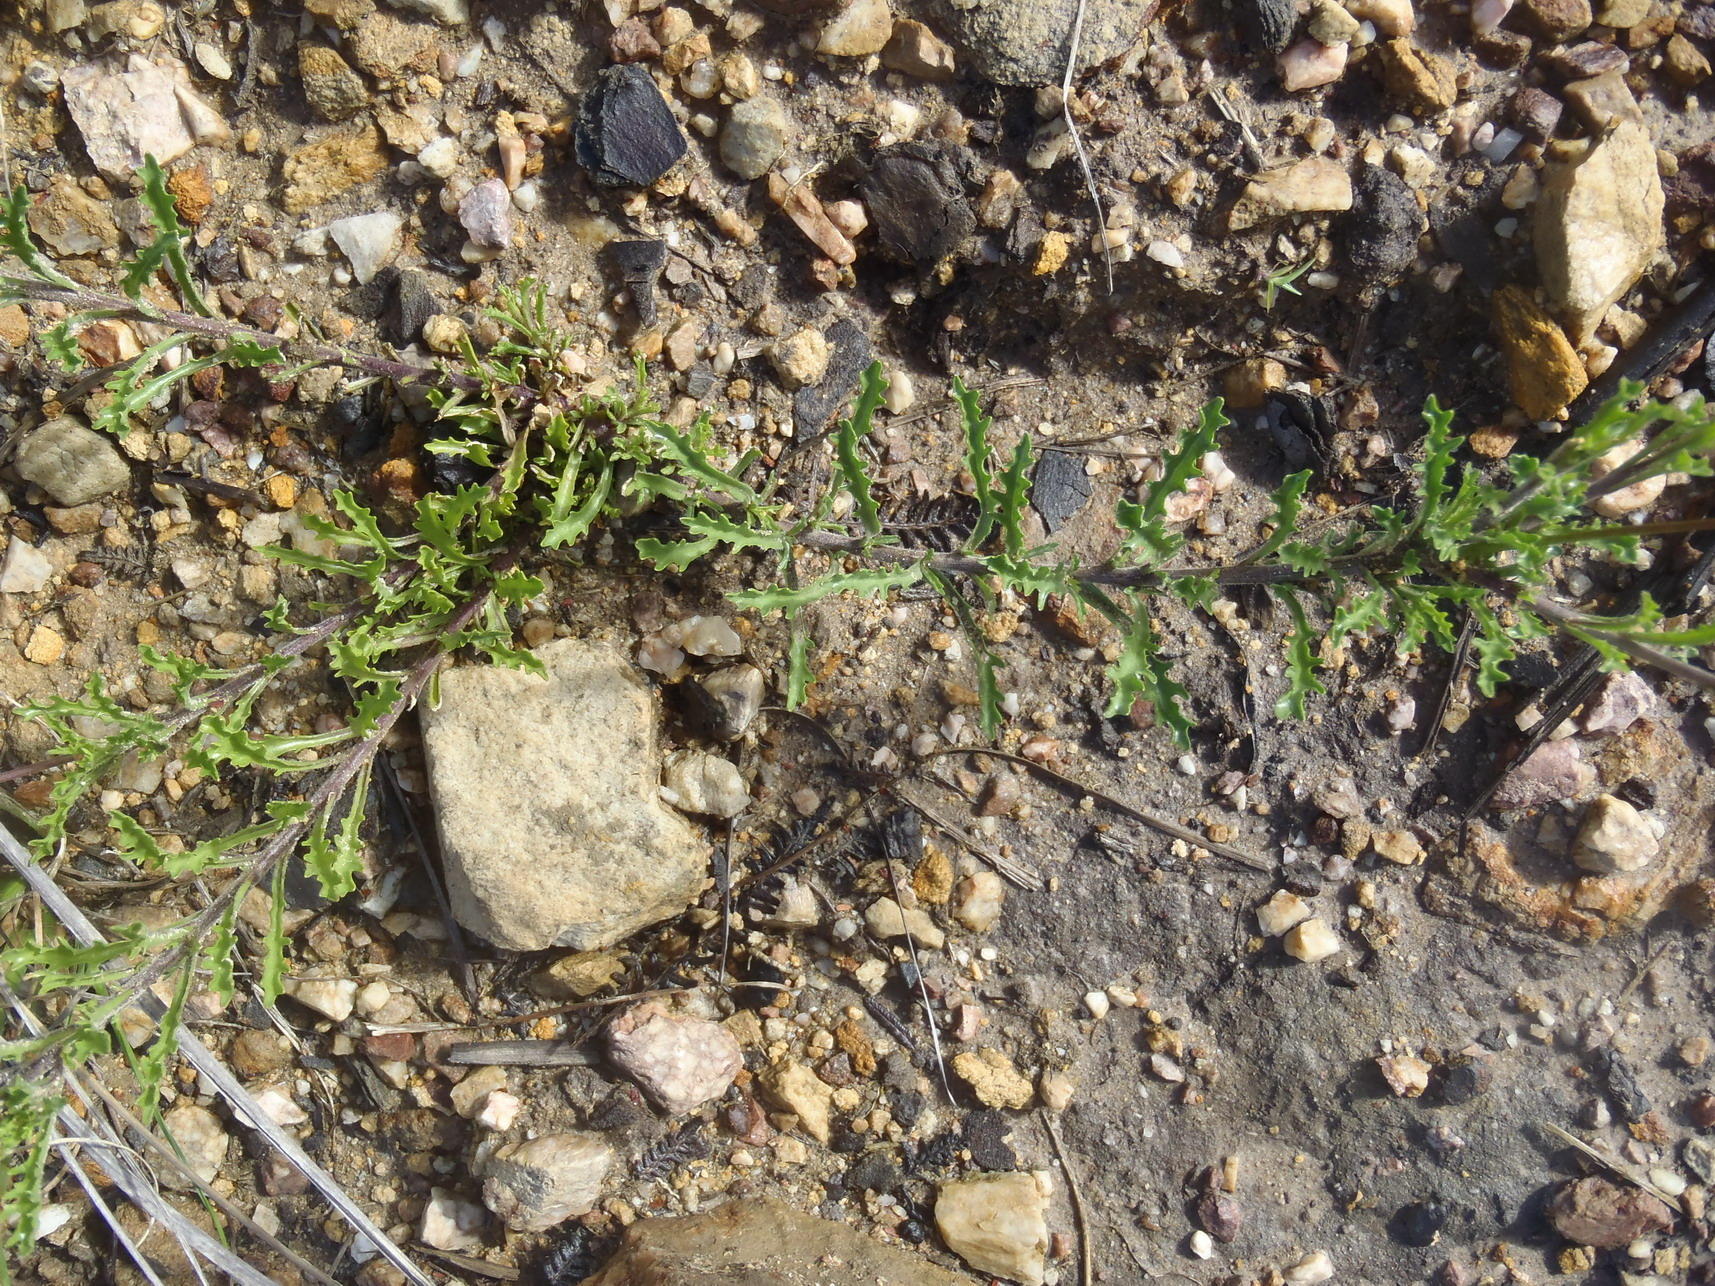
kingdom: Plantae
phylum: Tracheophyta
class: Magnoliopsida
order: Asterales
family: Campanulaceae
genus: Lobelia
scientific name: Lobelia tomentosa
